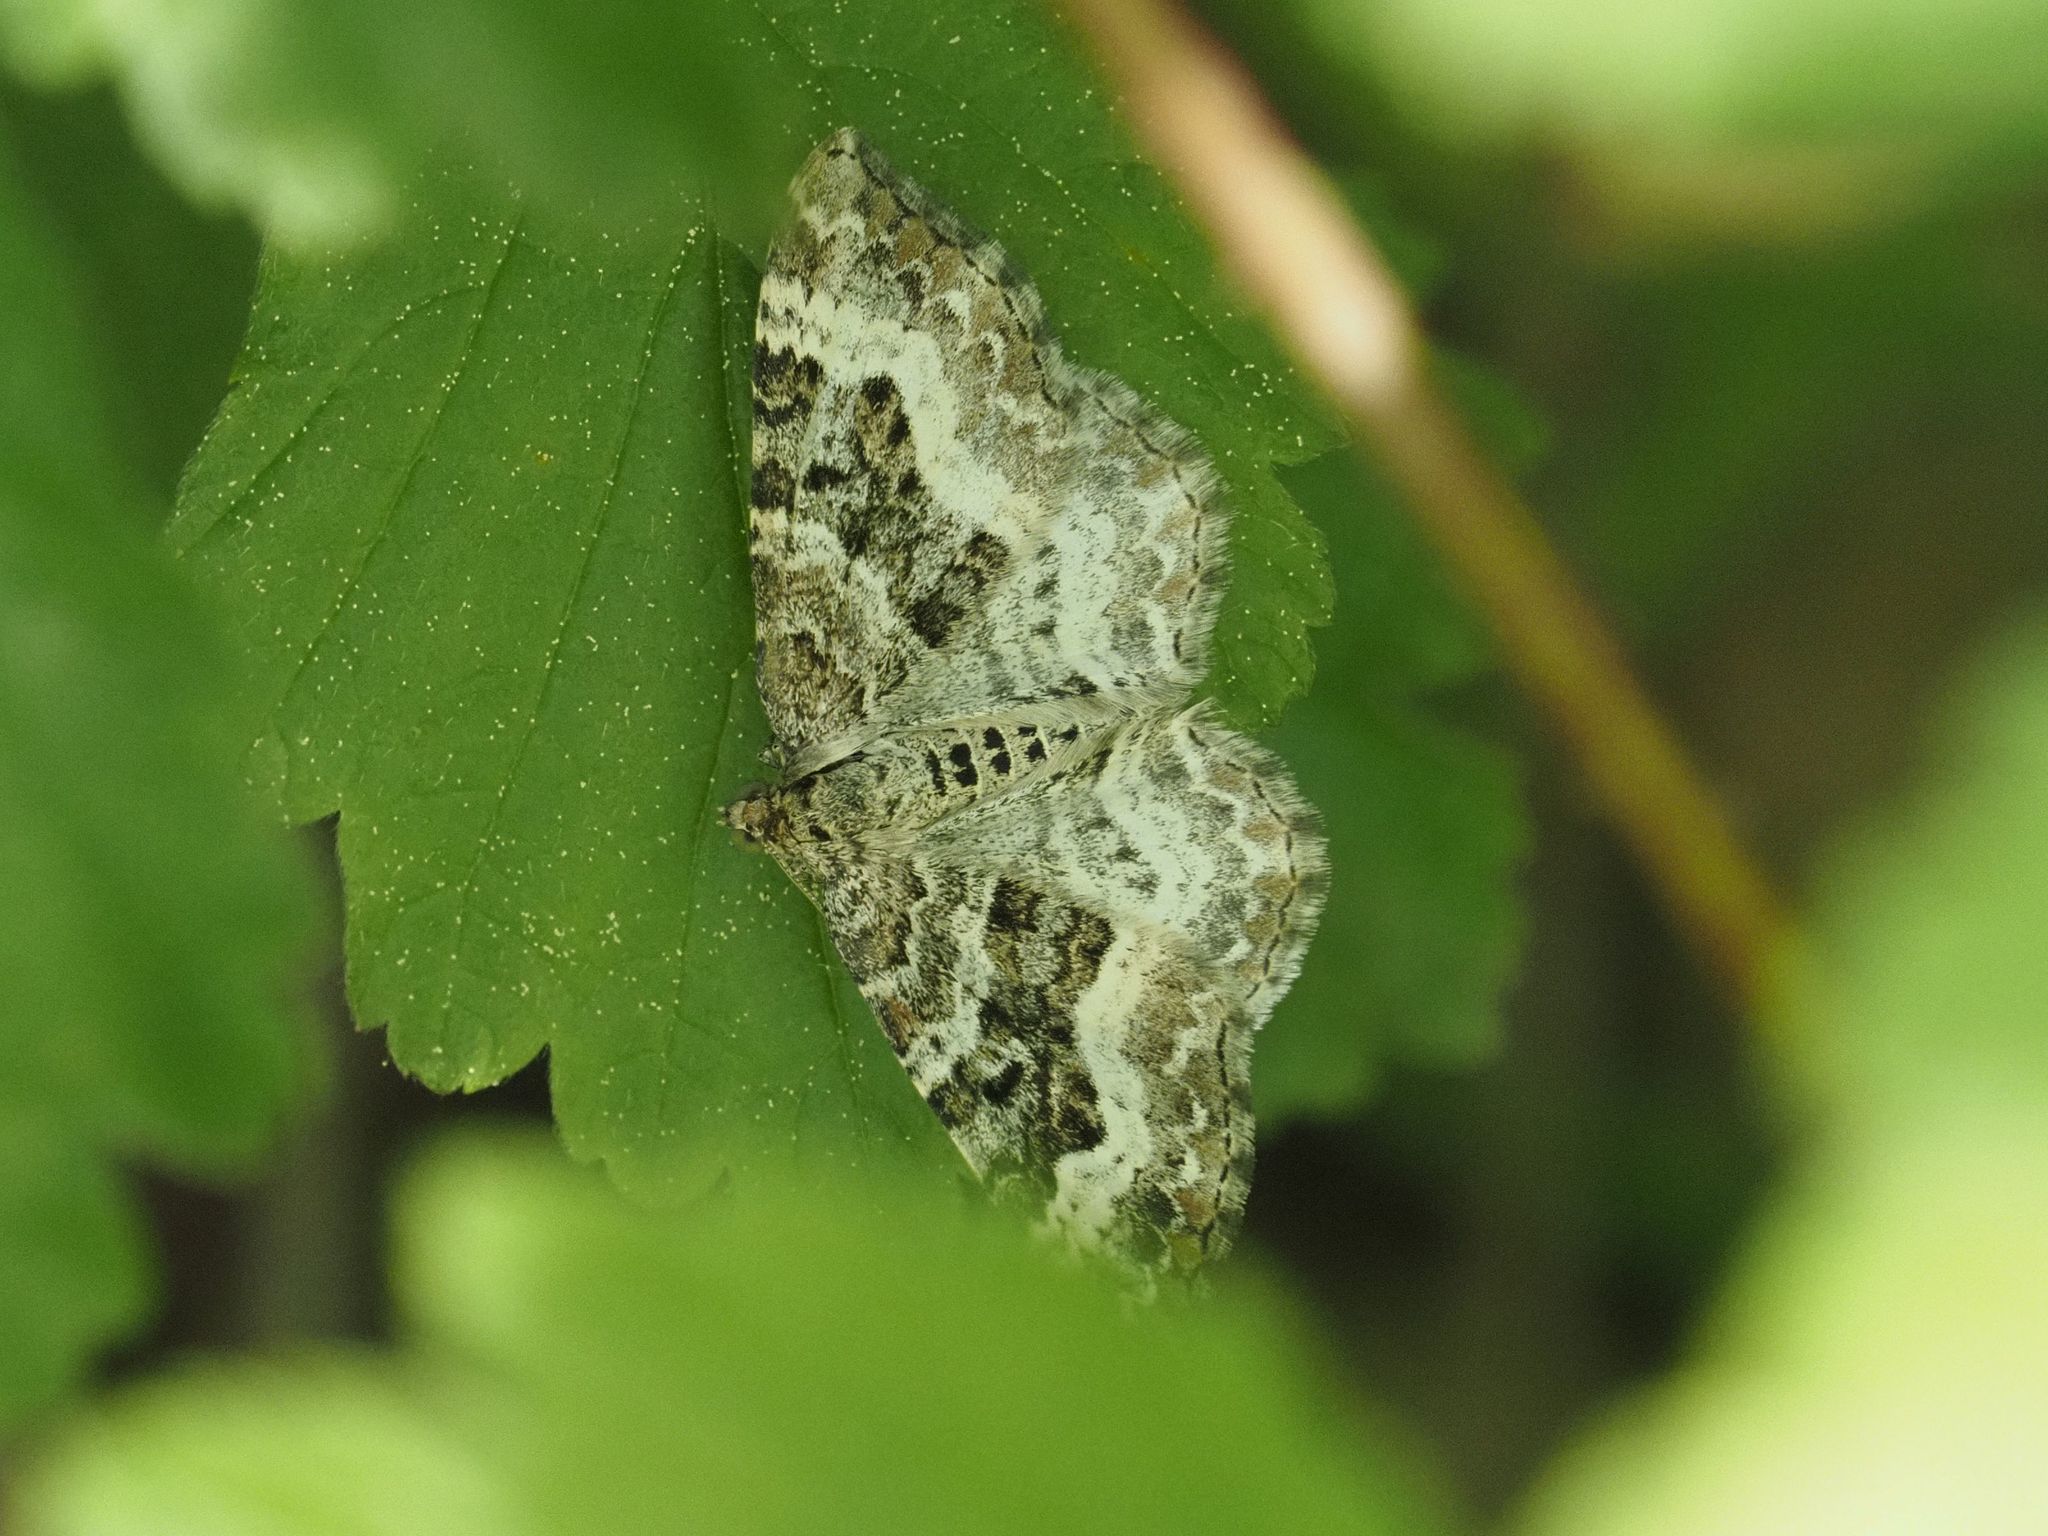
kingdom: Animalia
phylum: Arthropoda
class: Insecta
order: Lepidoptera
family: Geometridae
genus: Epirrhoe
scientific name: Epirrhoe alternata
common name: Common carpet
